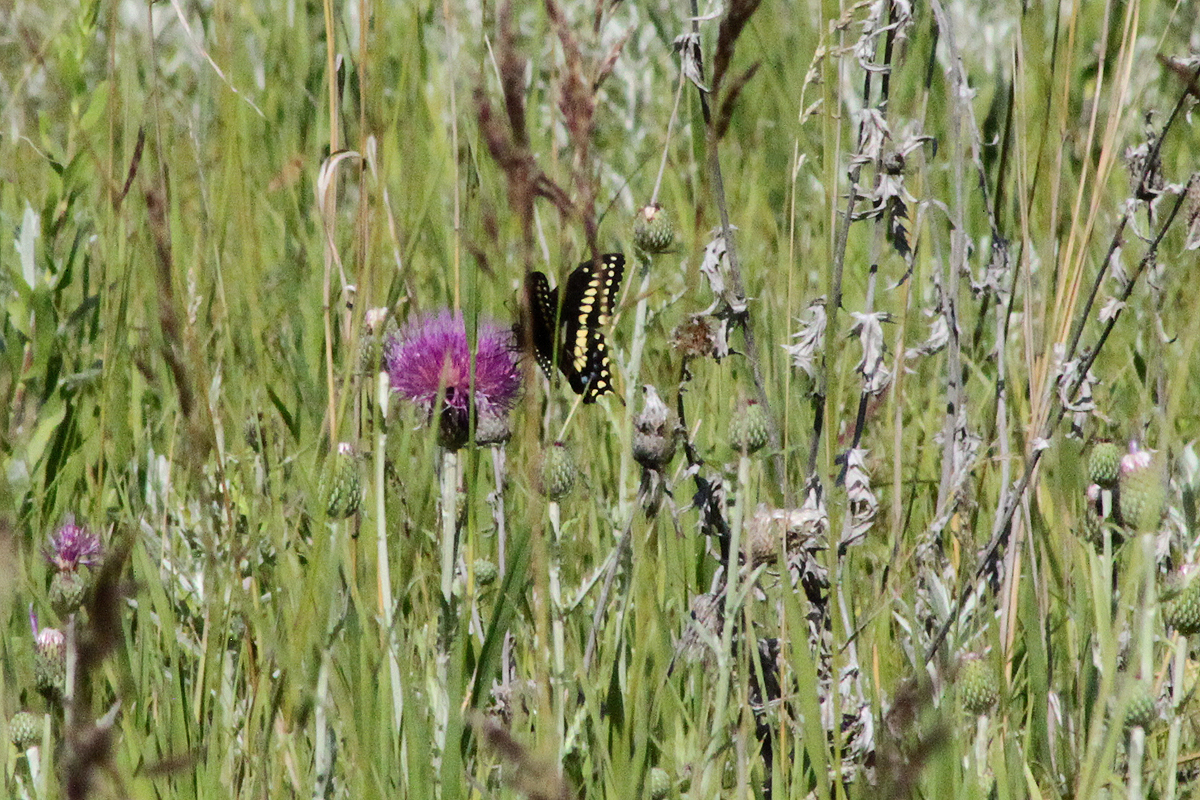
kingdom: Animalia
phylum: Arthropoda
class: Insecta
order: Lepidoptera
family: Papilionidae
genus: Papilio
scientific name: Papilio polyxenes
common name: Black swallowtail
